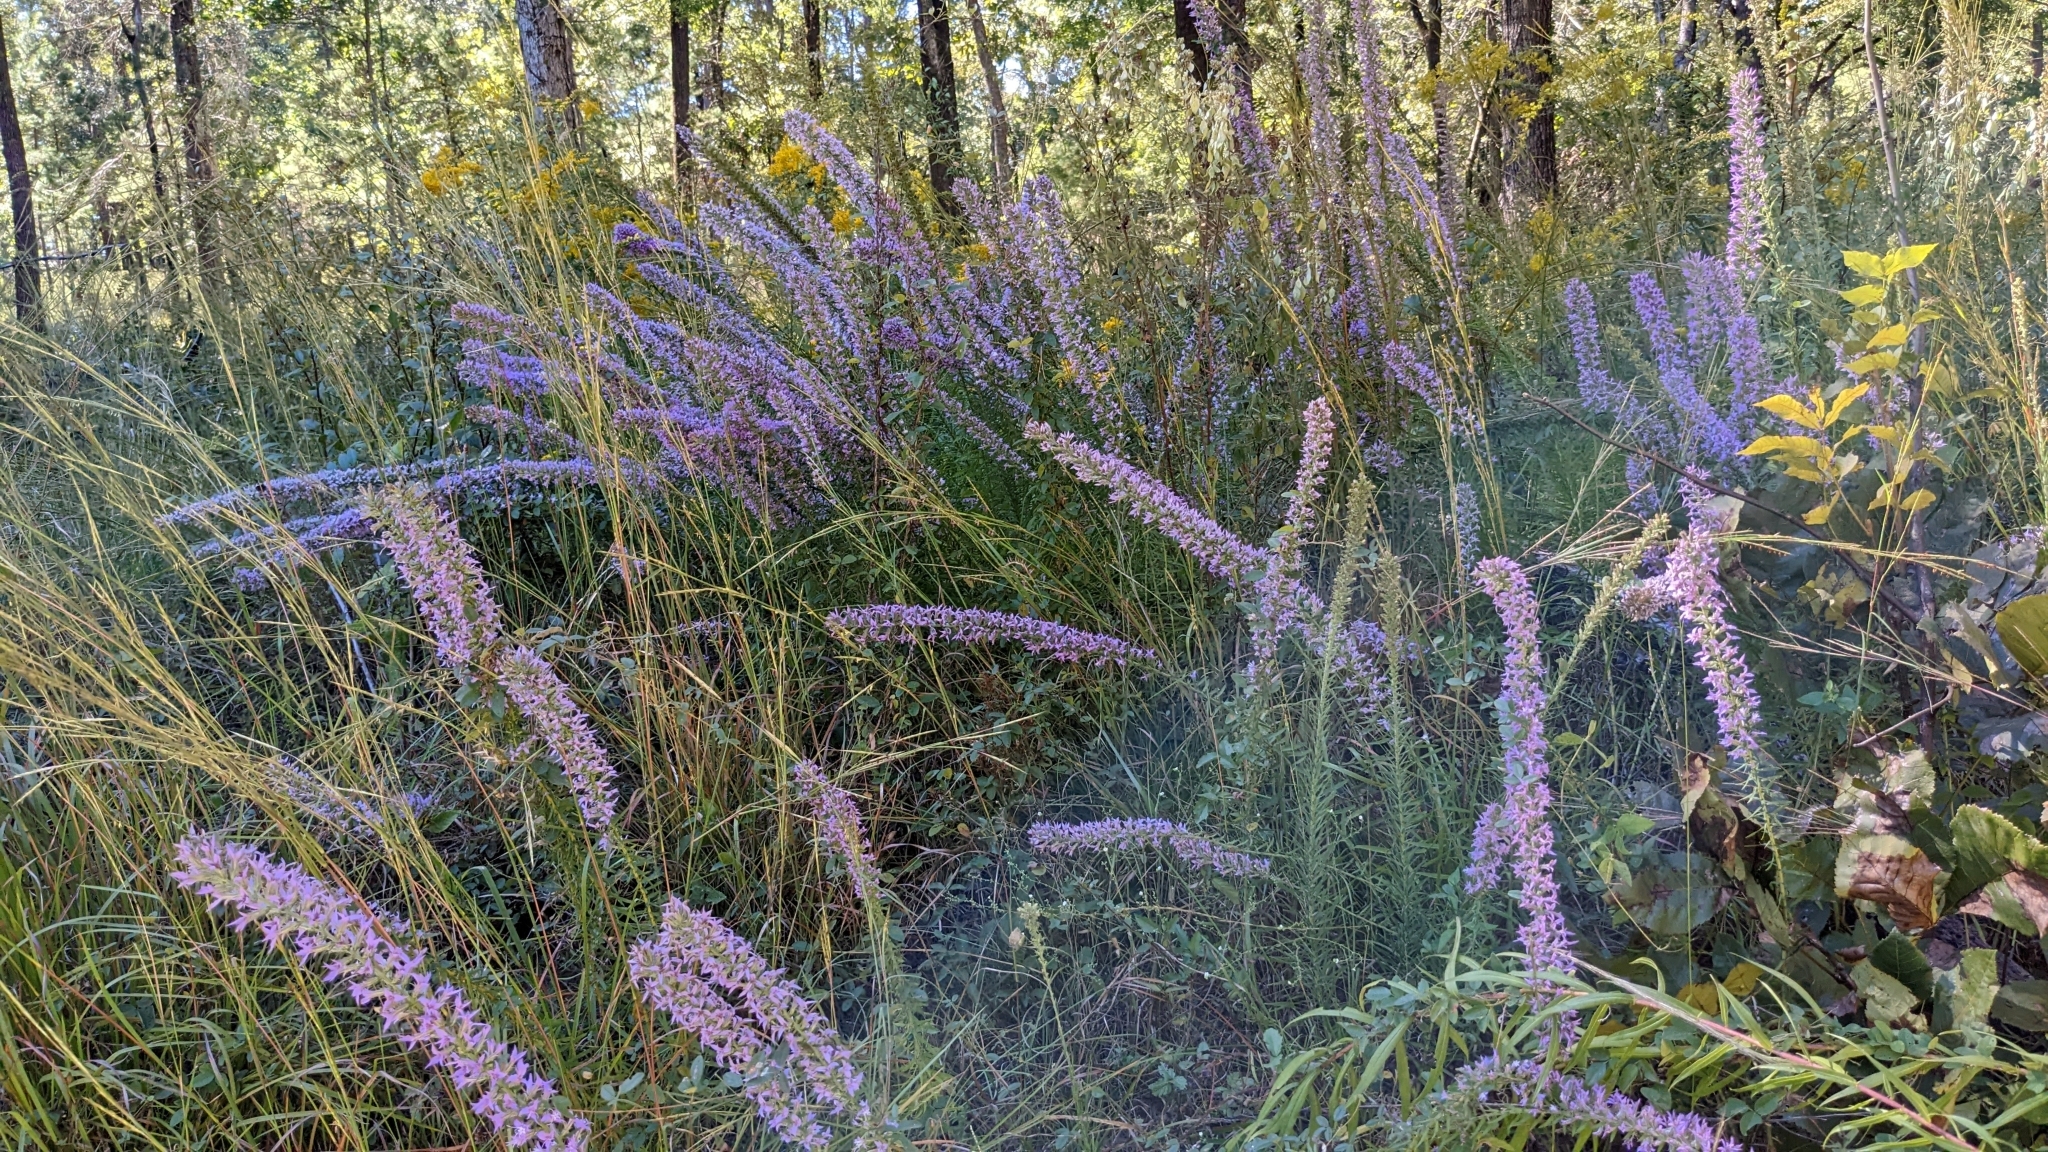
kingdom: Plantae
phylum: Tracheophyta
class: Magnoliopsida
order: Asterales
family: Asteraceae
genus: Liatris
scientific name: Liatris hesperelegans
